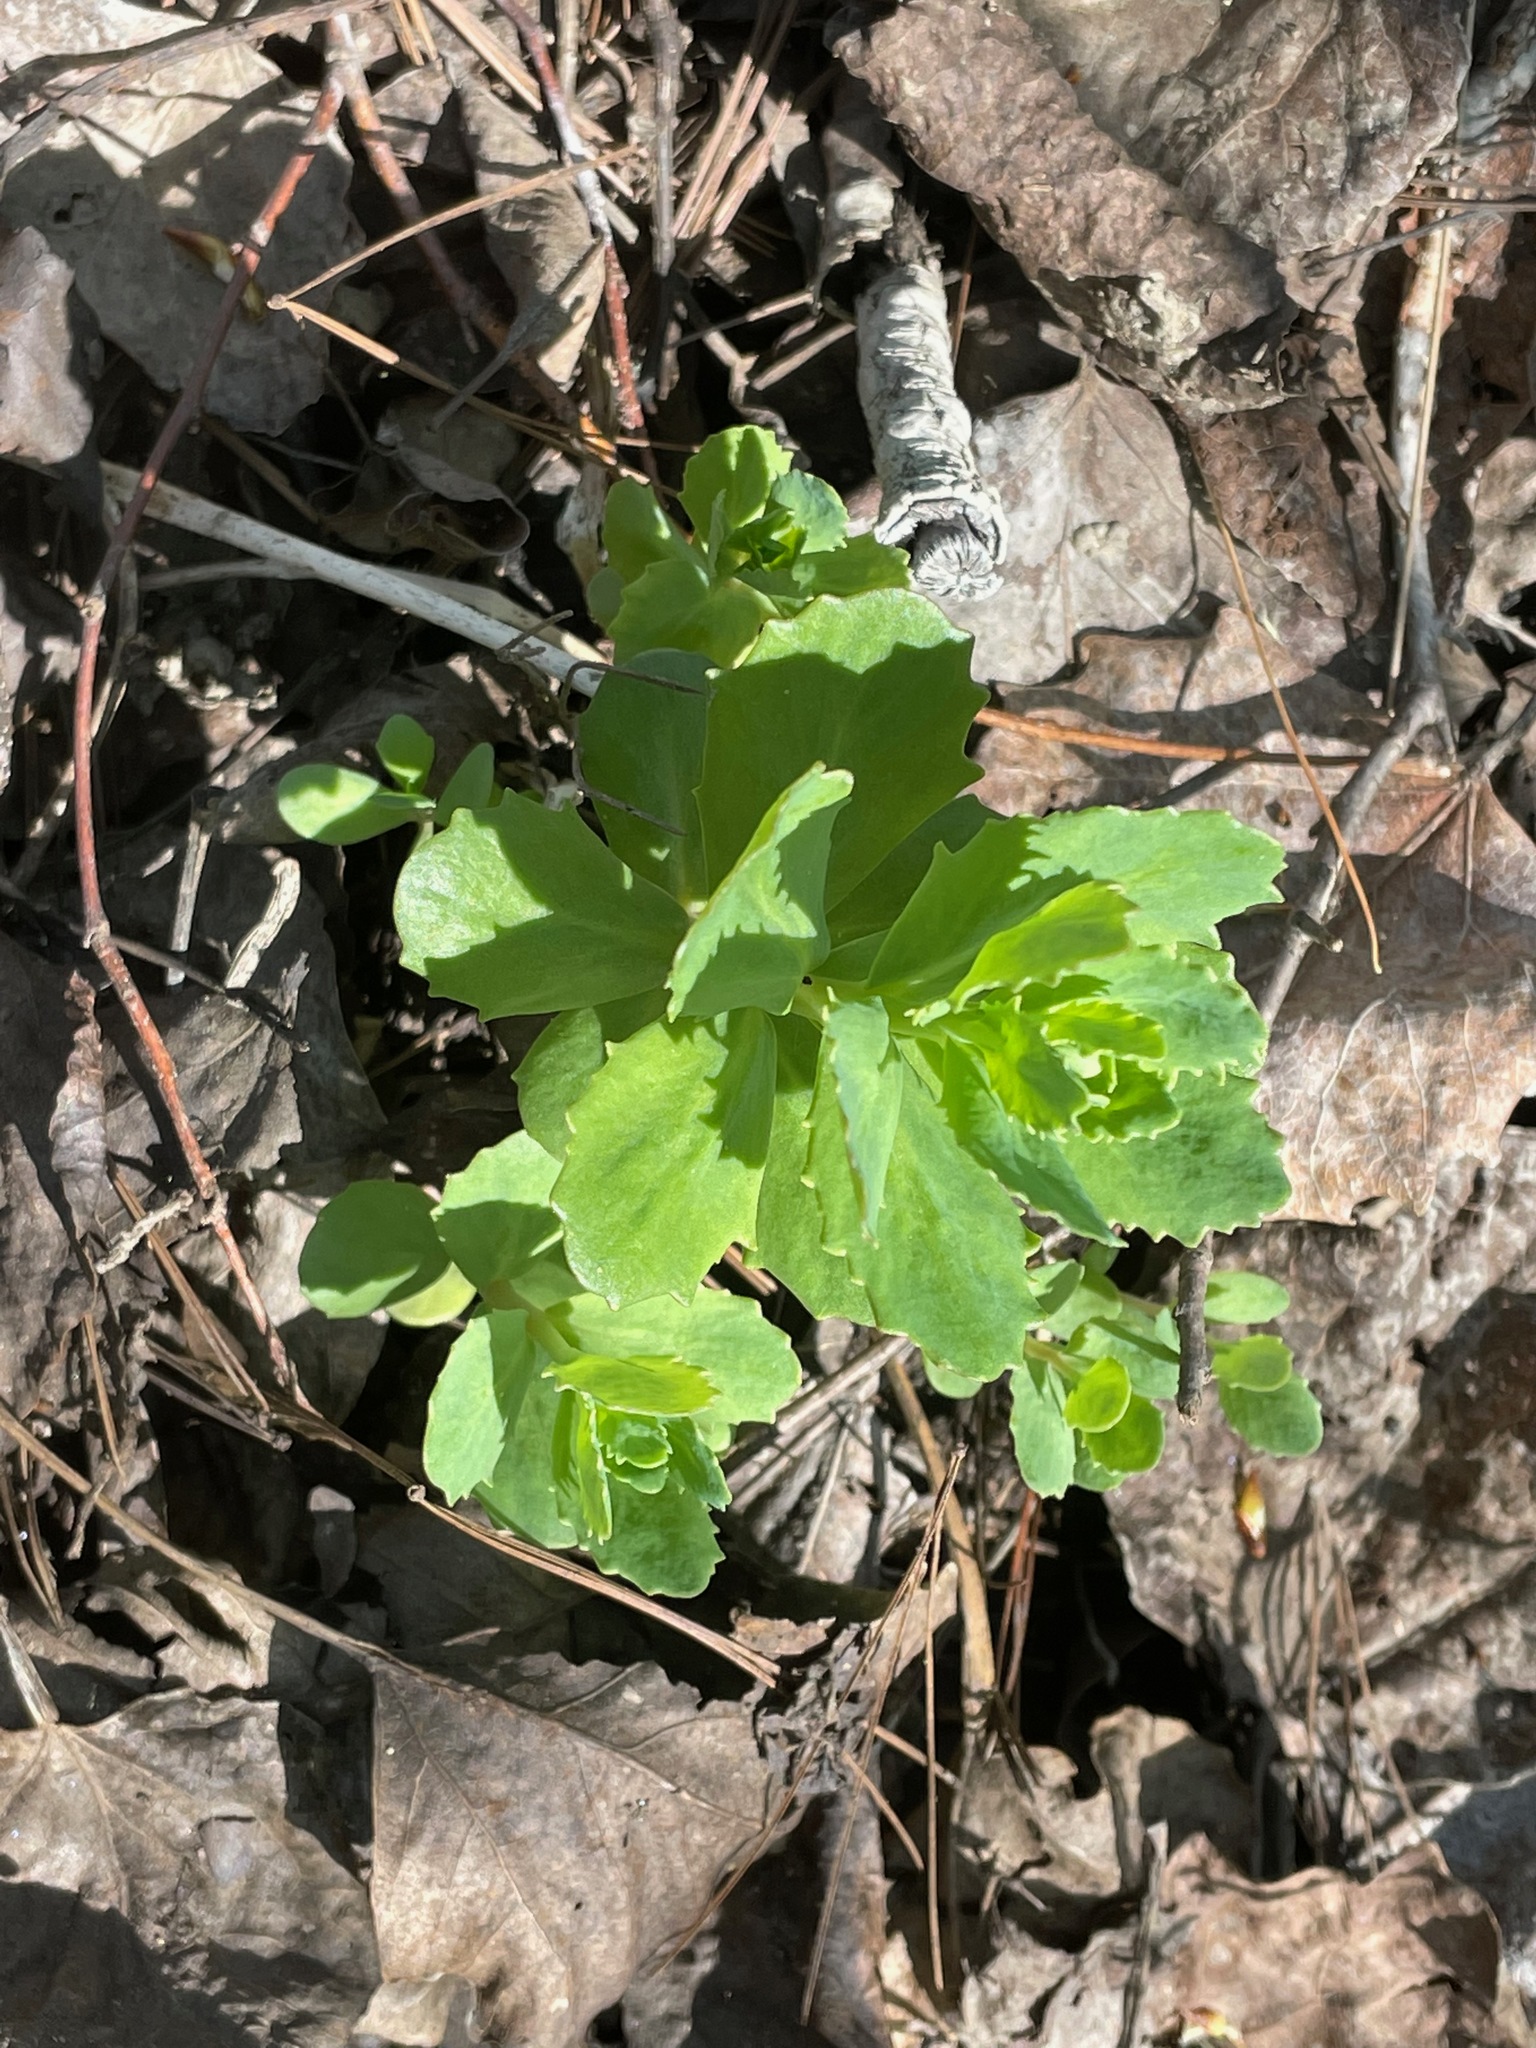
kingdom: Plantae
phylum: Tracheophyta
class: Magnoliopsida
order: Saxifragales
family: Crassulaceae
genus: Hylotelephium
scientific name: Hylotelephium telephium
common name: Live-forever
